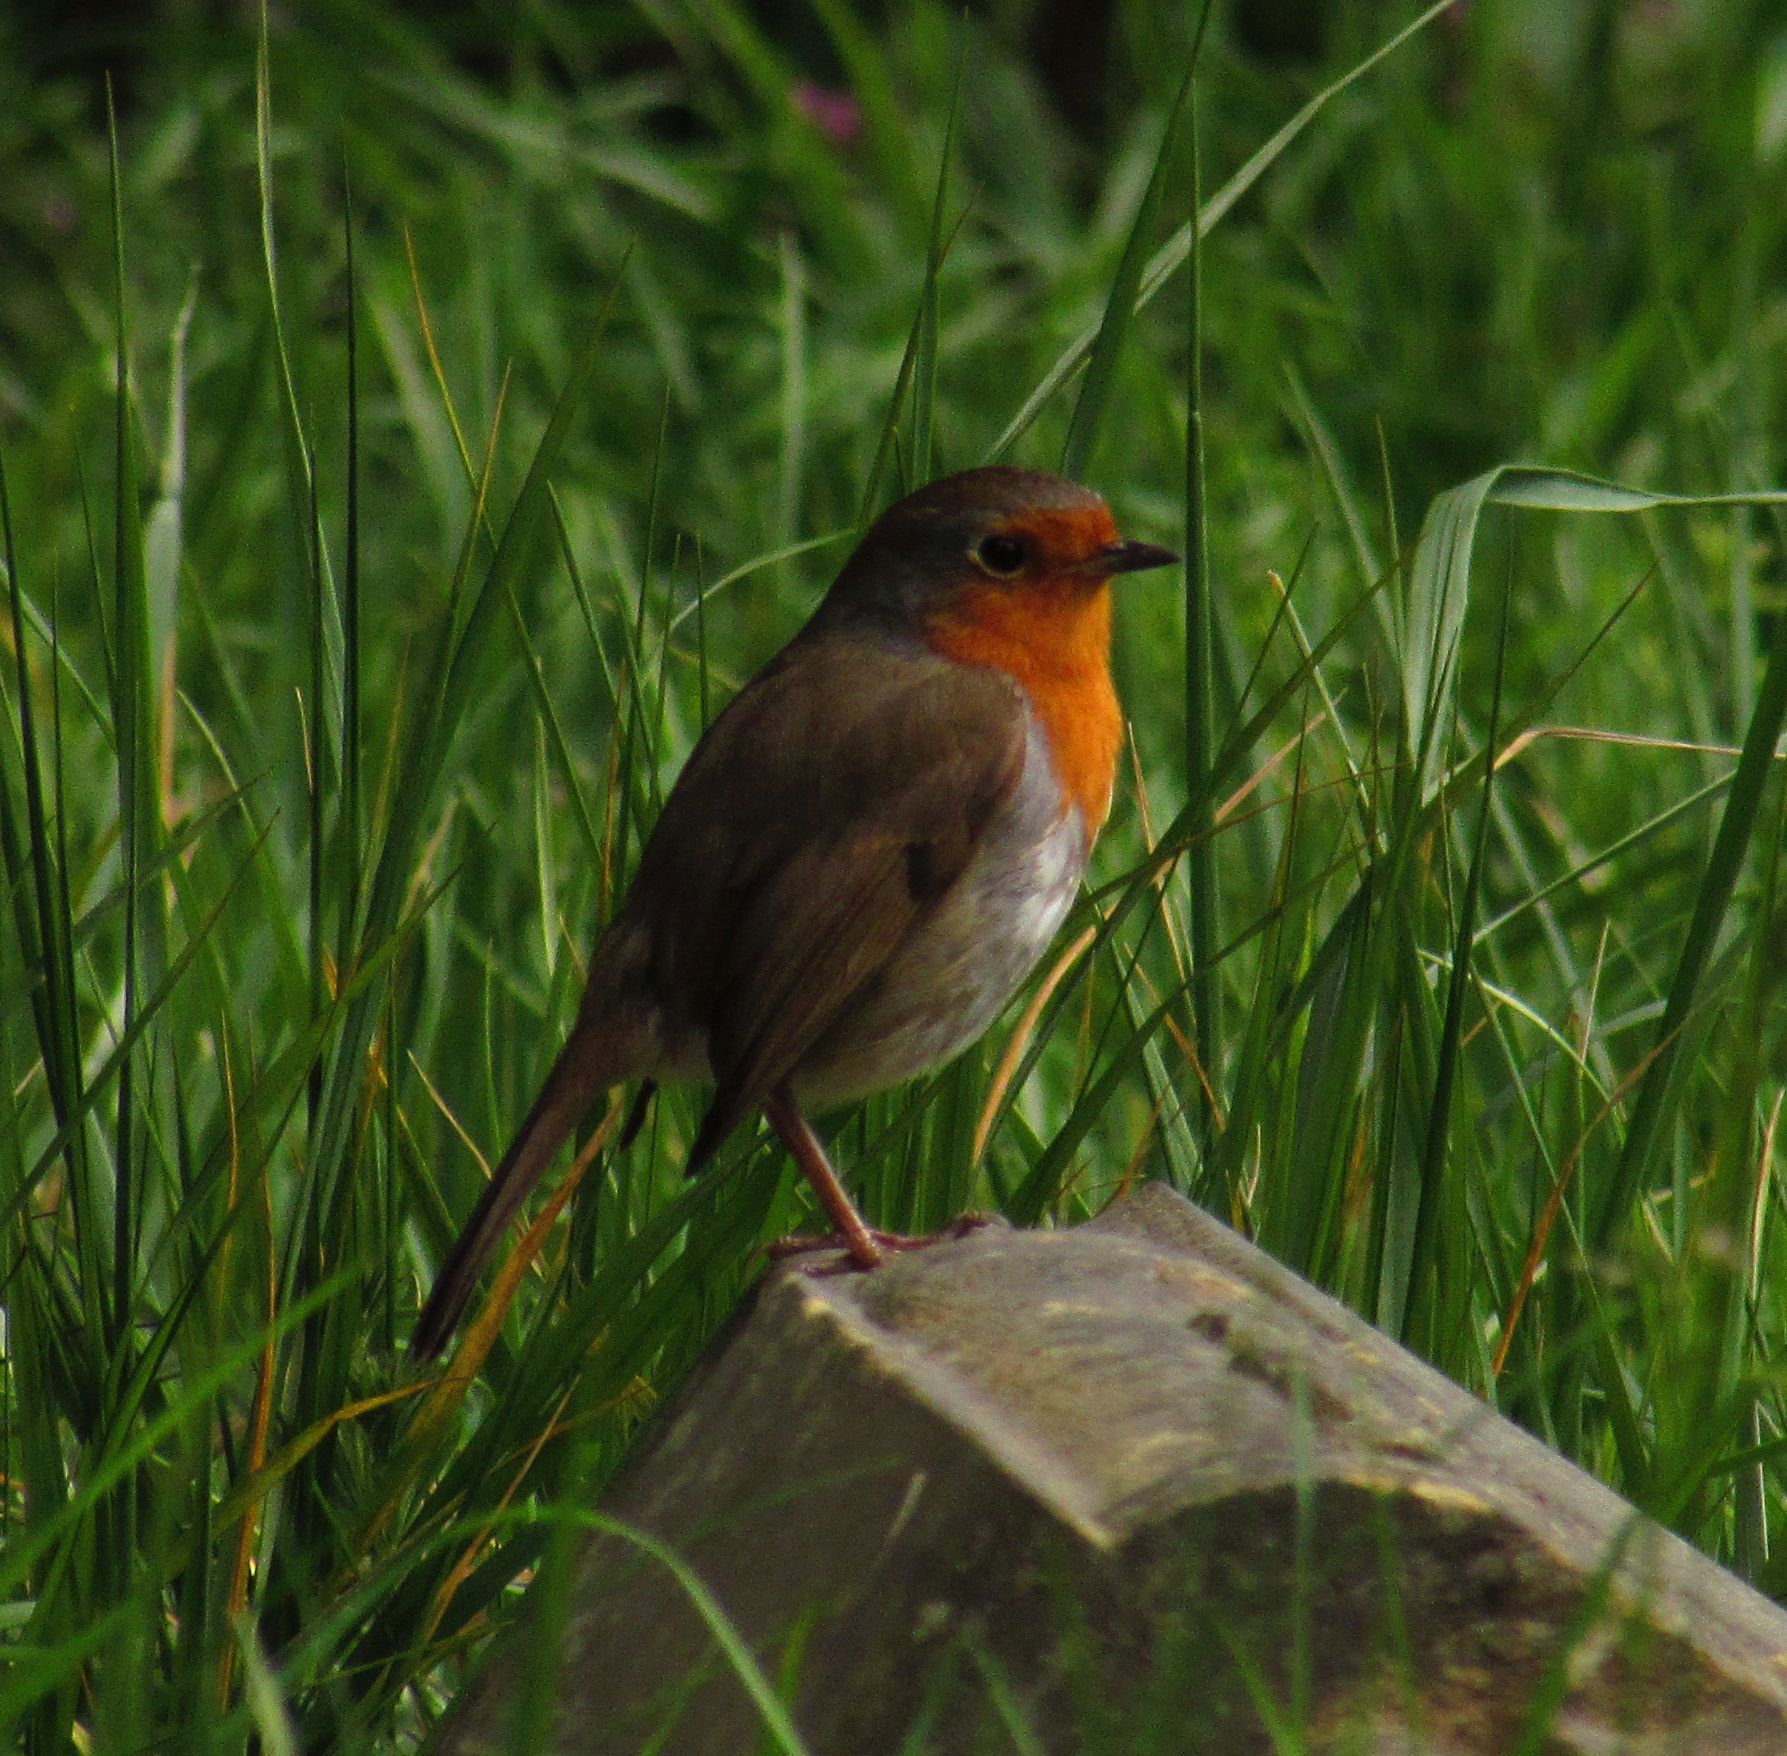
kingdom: Animalia
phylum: Chordata
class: Aves
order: Passeriformes
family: Muscicapidae
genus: Erithacus
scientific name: Erithacus rubecula
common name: European robin
